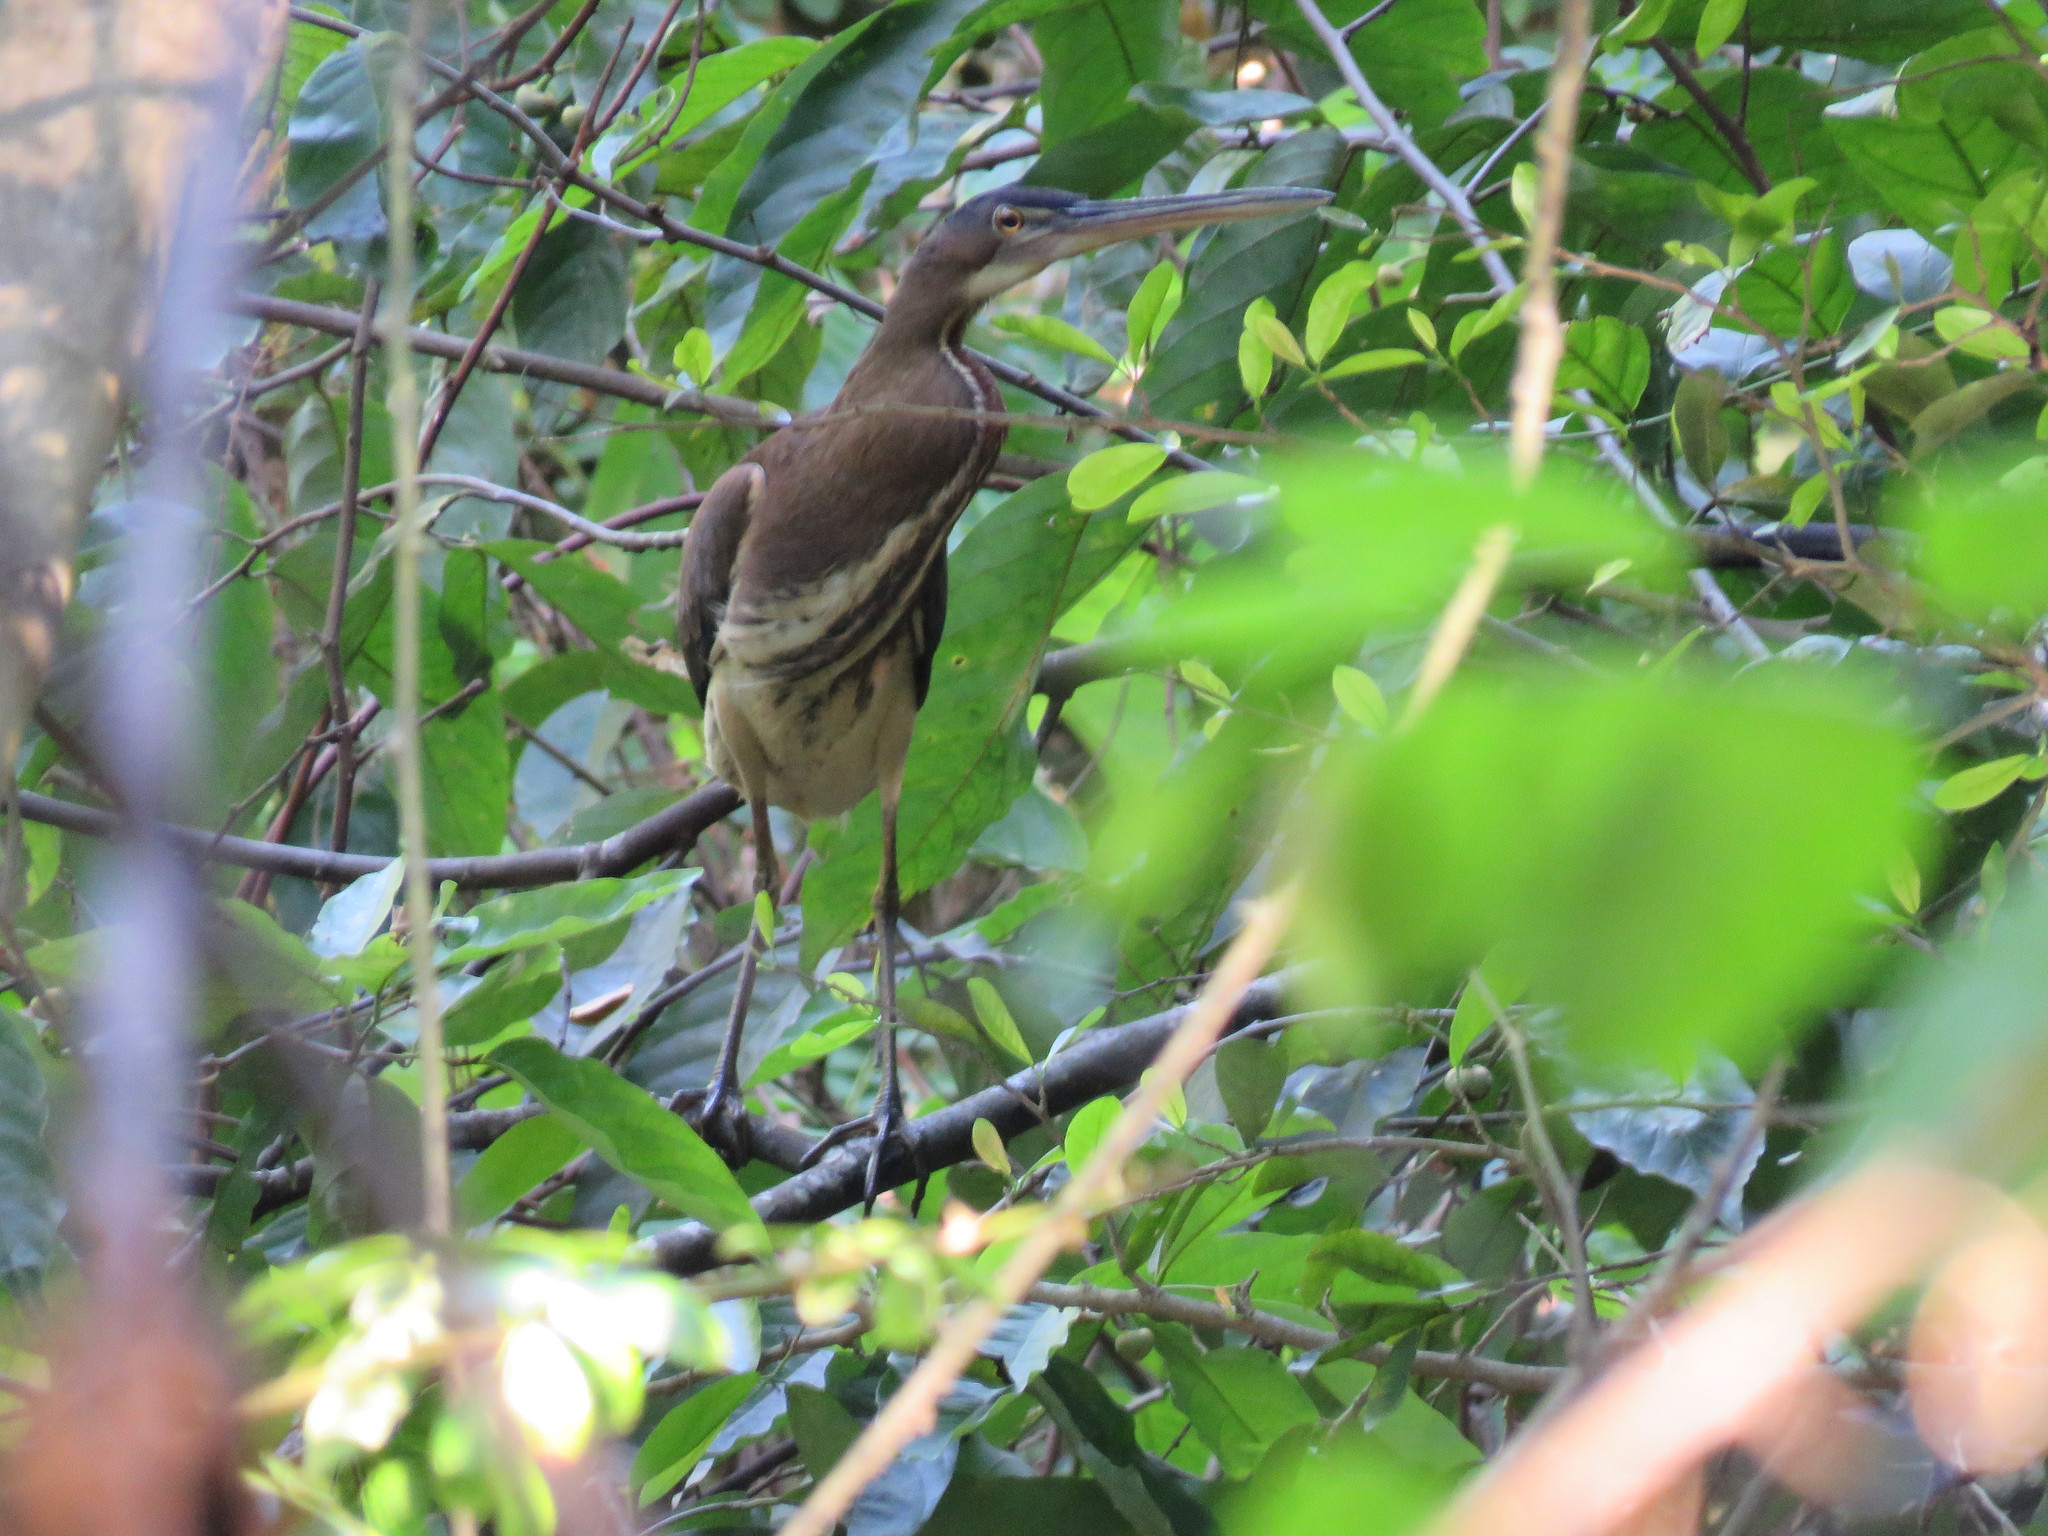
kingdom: Animalia
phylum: Chordata
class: Aves
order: Pelecaniformes
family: Ardeidae
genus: Agamia
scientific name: Agamia agami
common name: Agami heron
